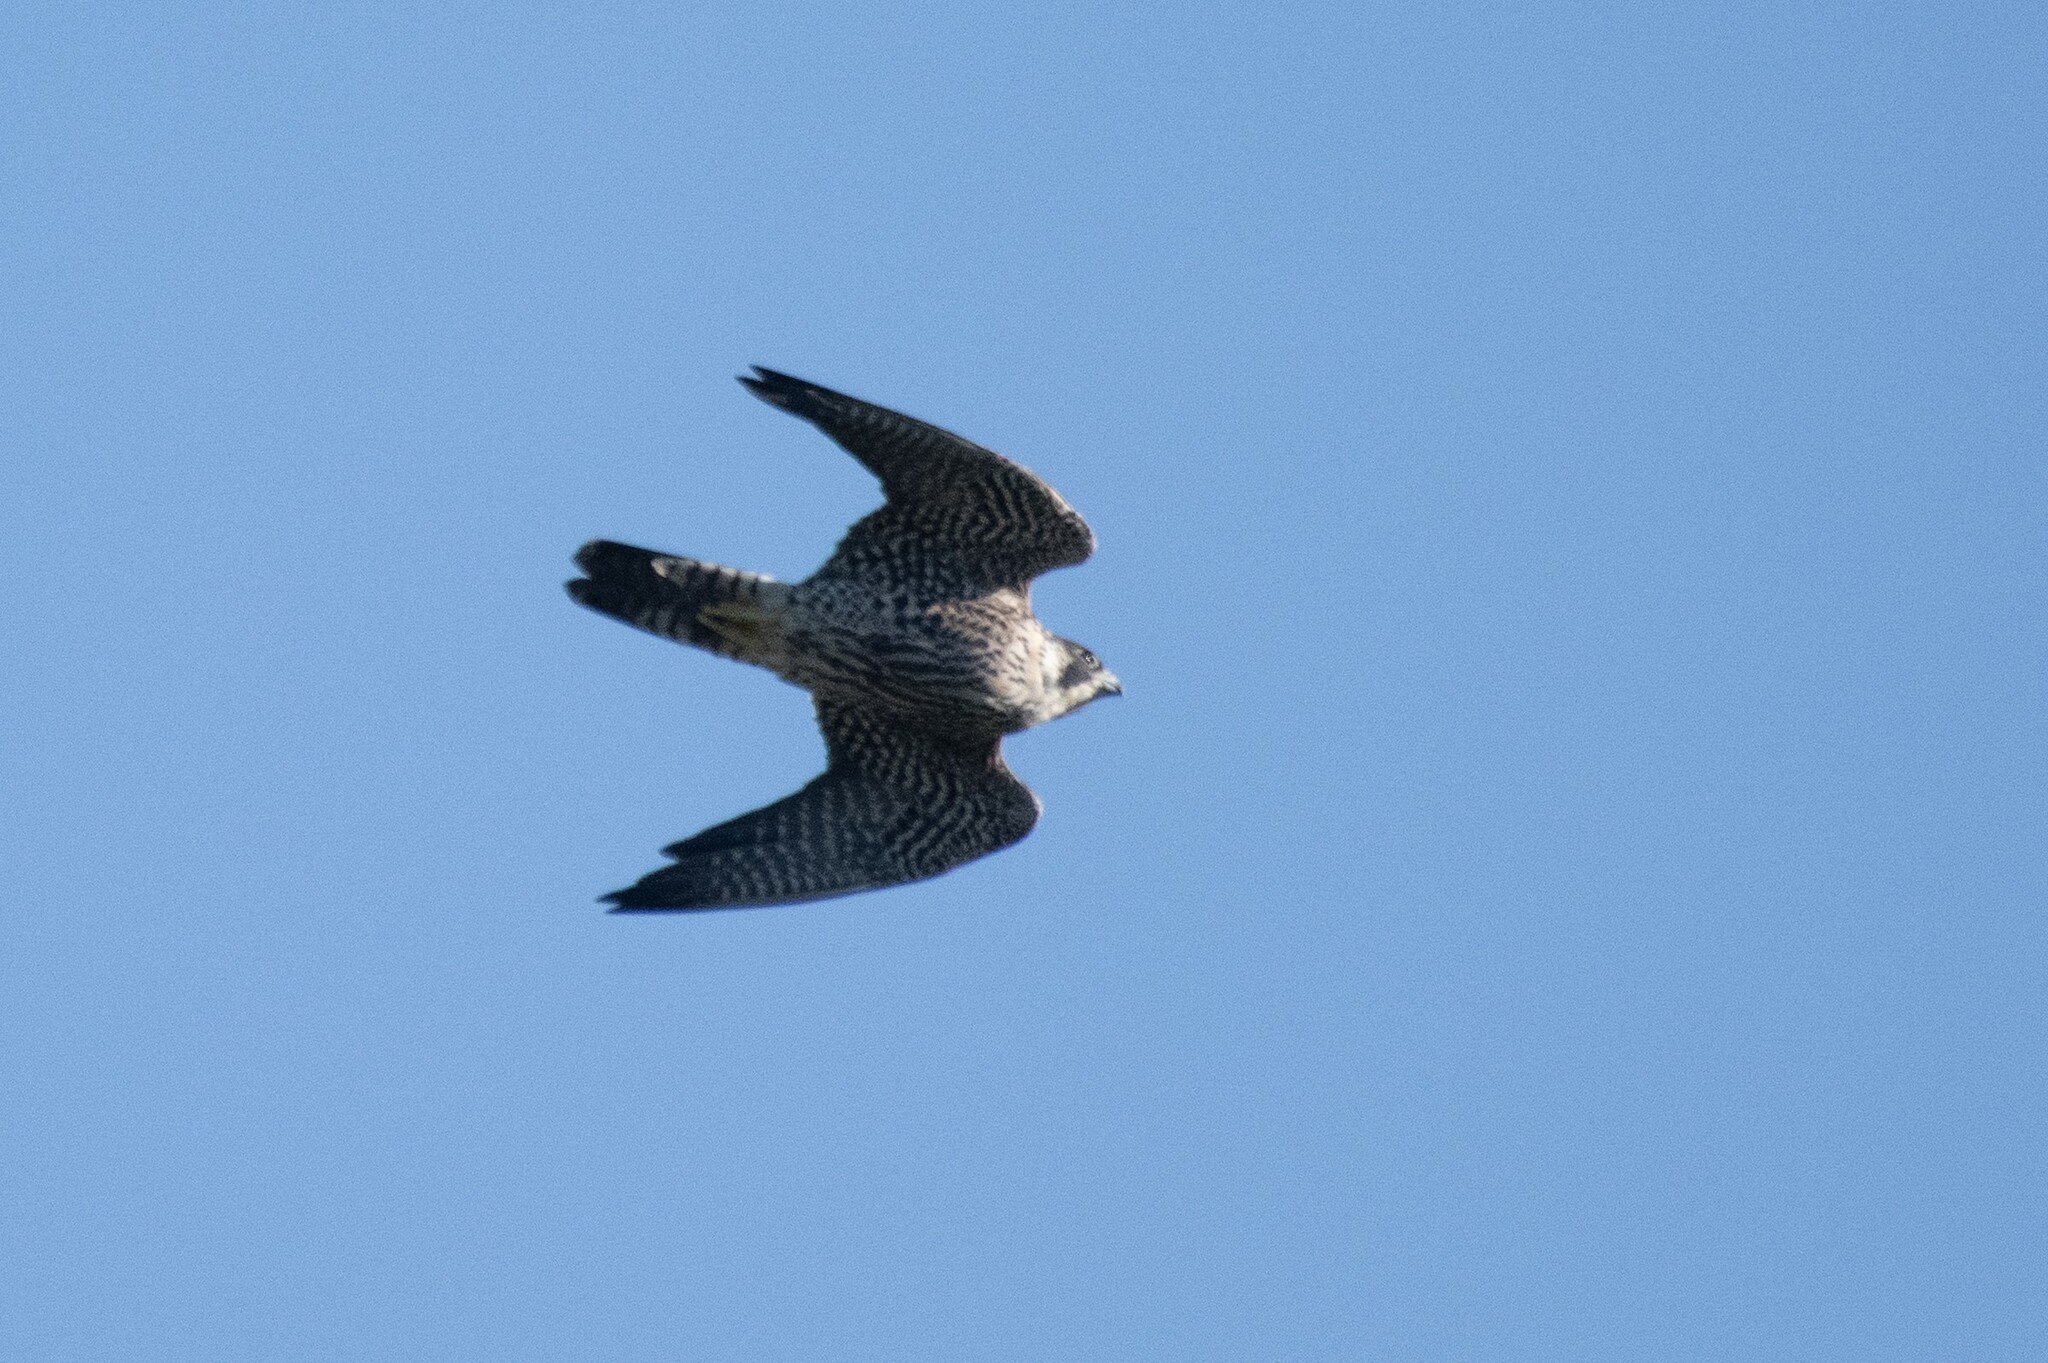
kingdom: Animalia
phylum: Chordata
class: Aves
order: Falconiformes
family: Falconidae
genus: Falco
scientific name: Falco peregrinus
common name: Peregrine falcon
